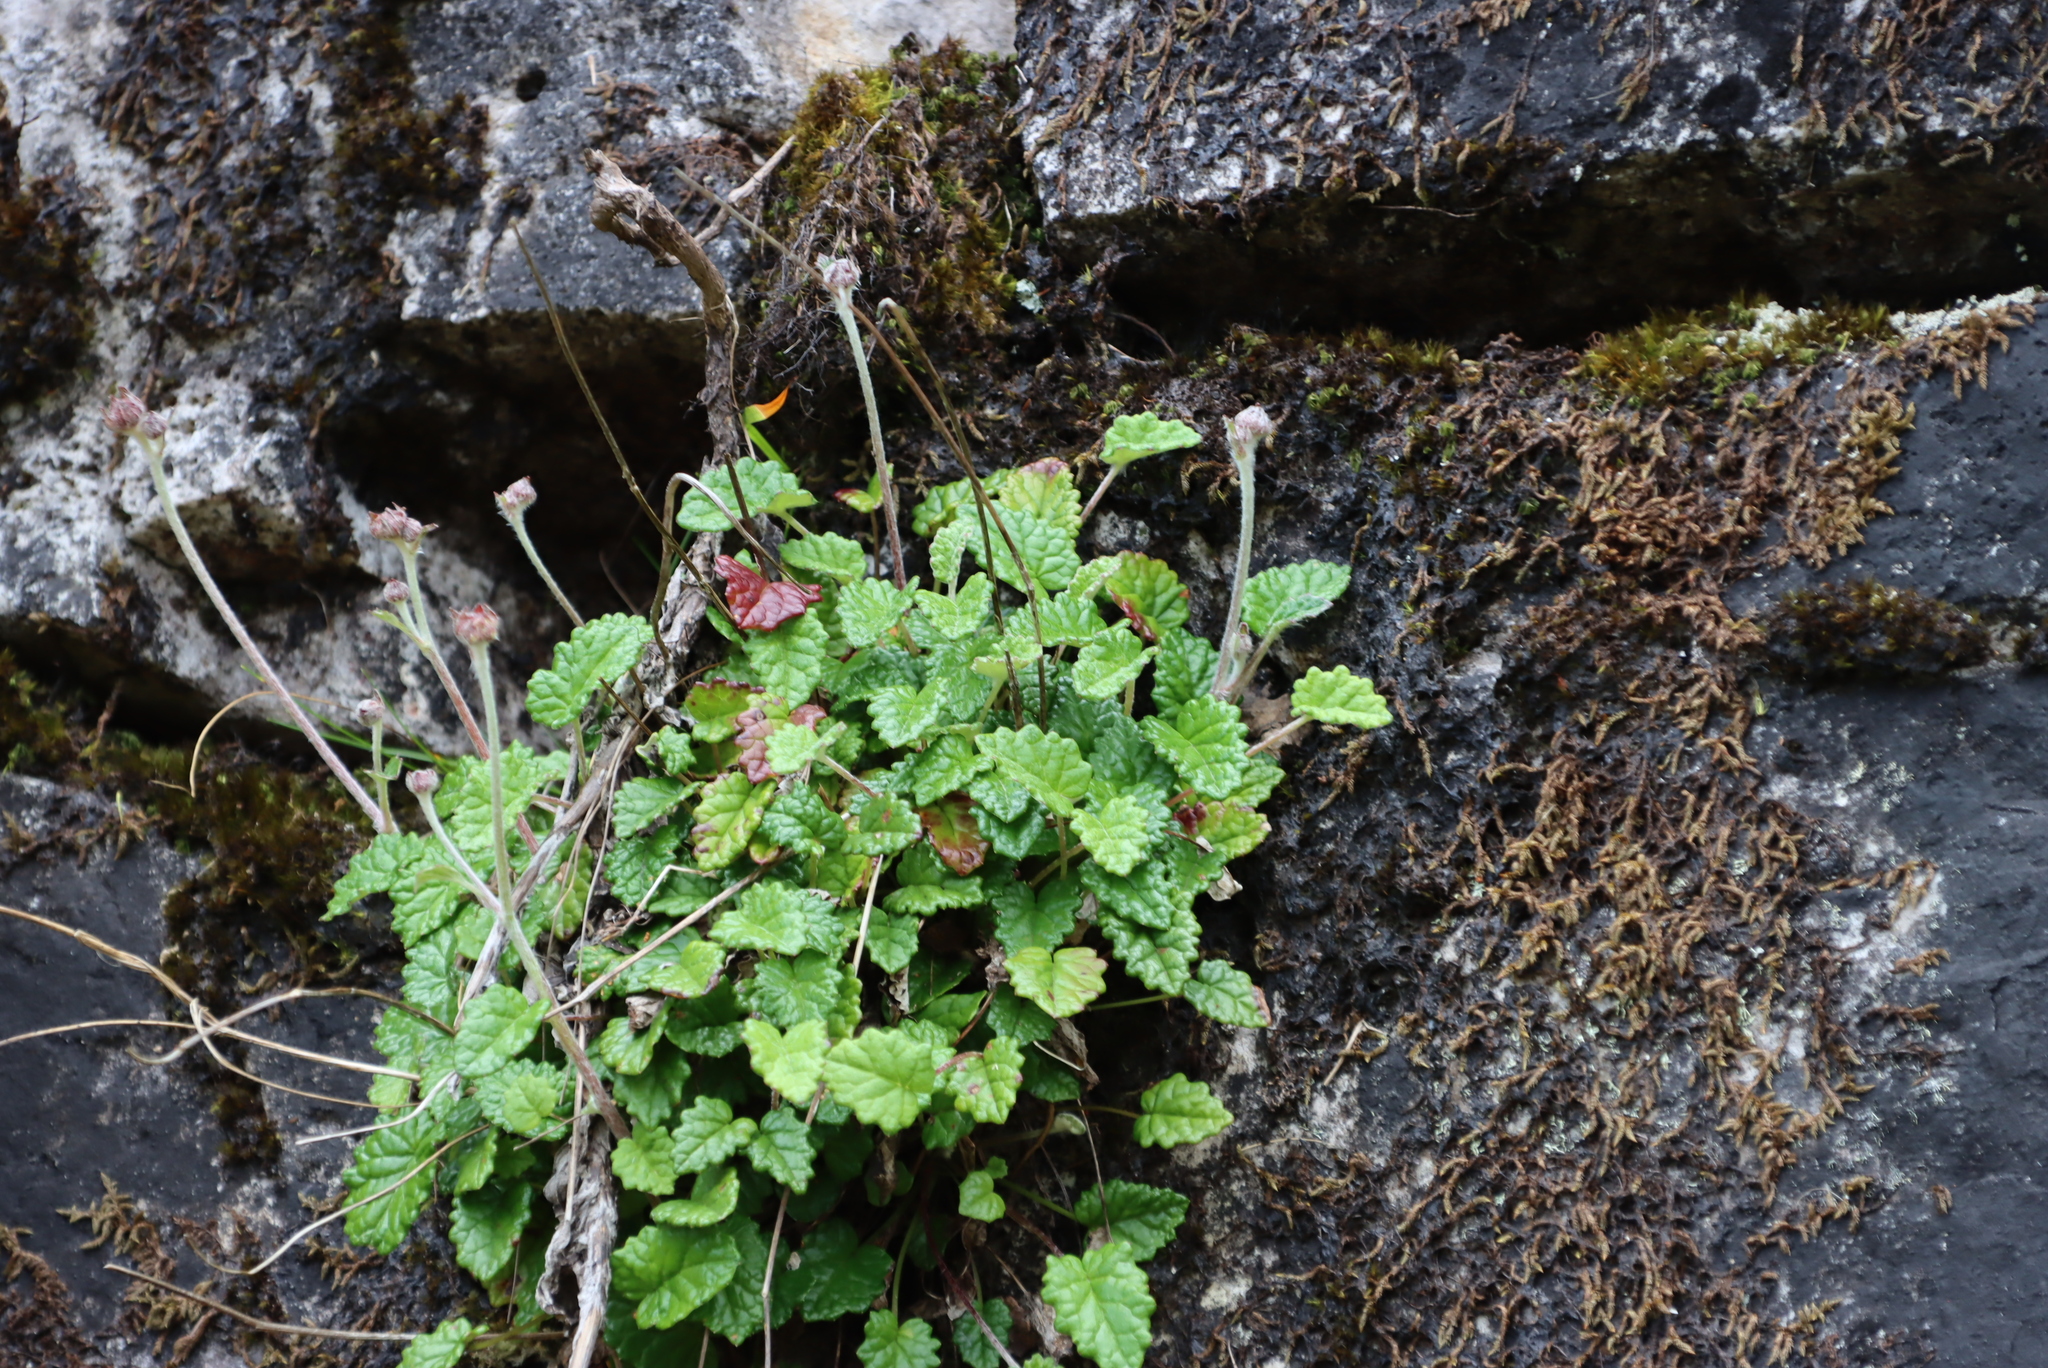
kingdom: Plantae
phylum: Tracheophyta
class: Magnoliopsida
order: Apiales
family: Apiaceae
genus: Hermas
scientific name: Hermas capitata
